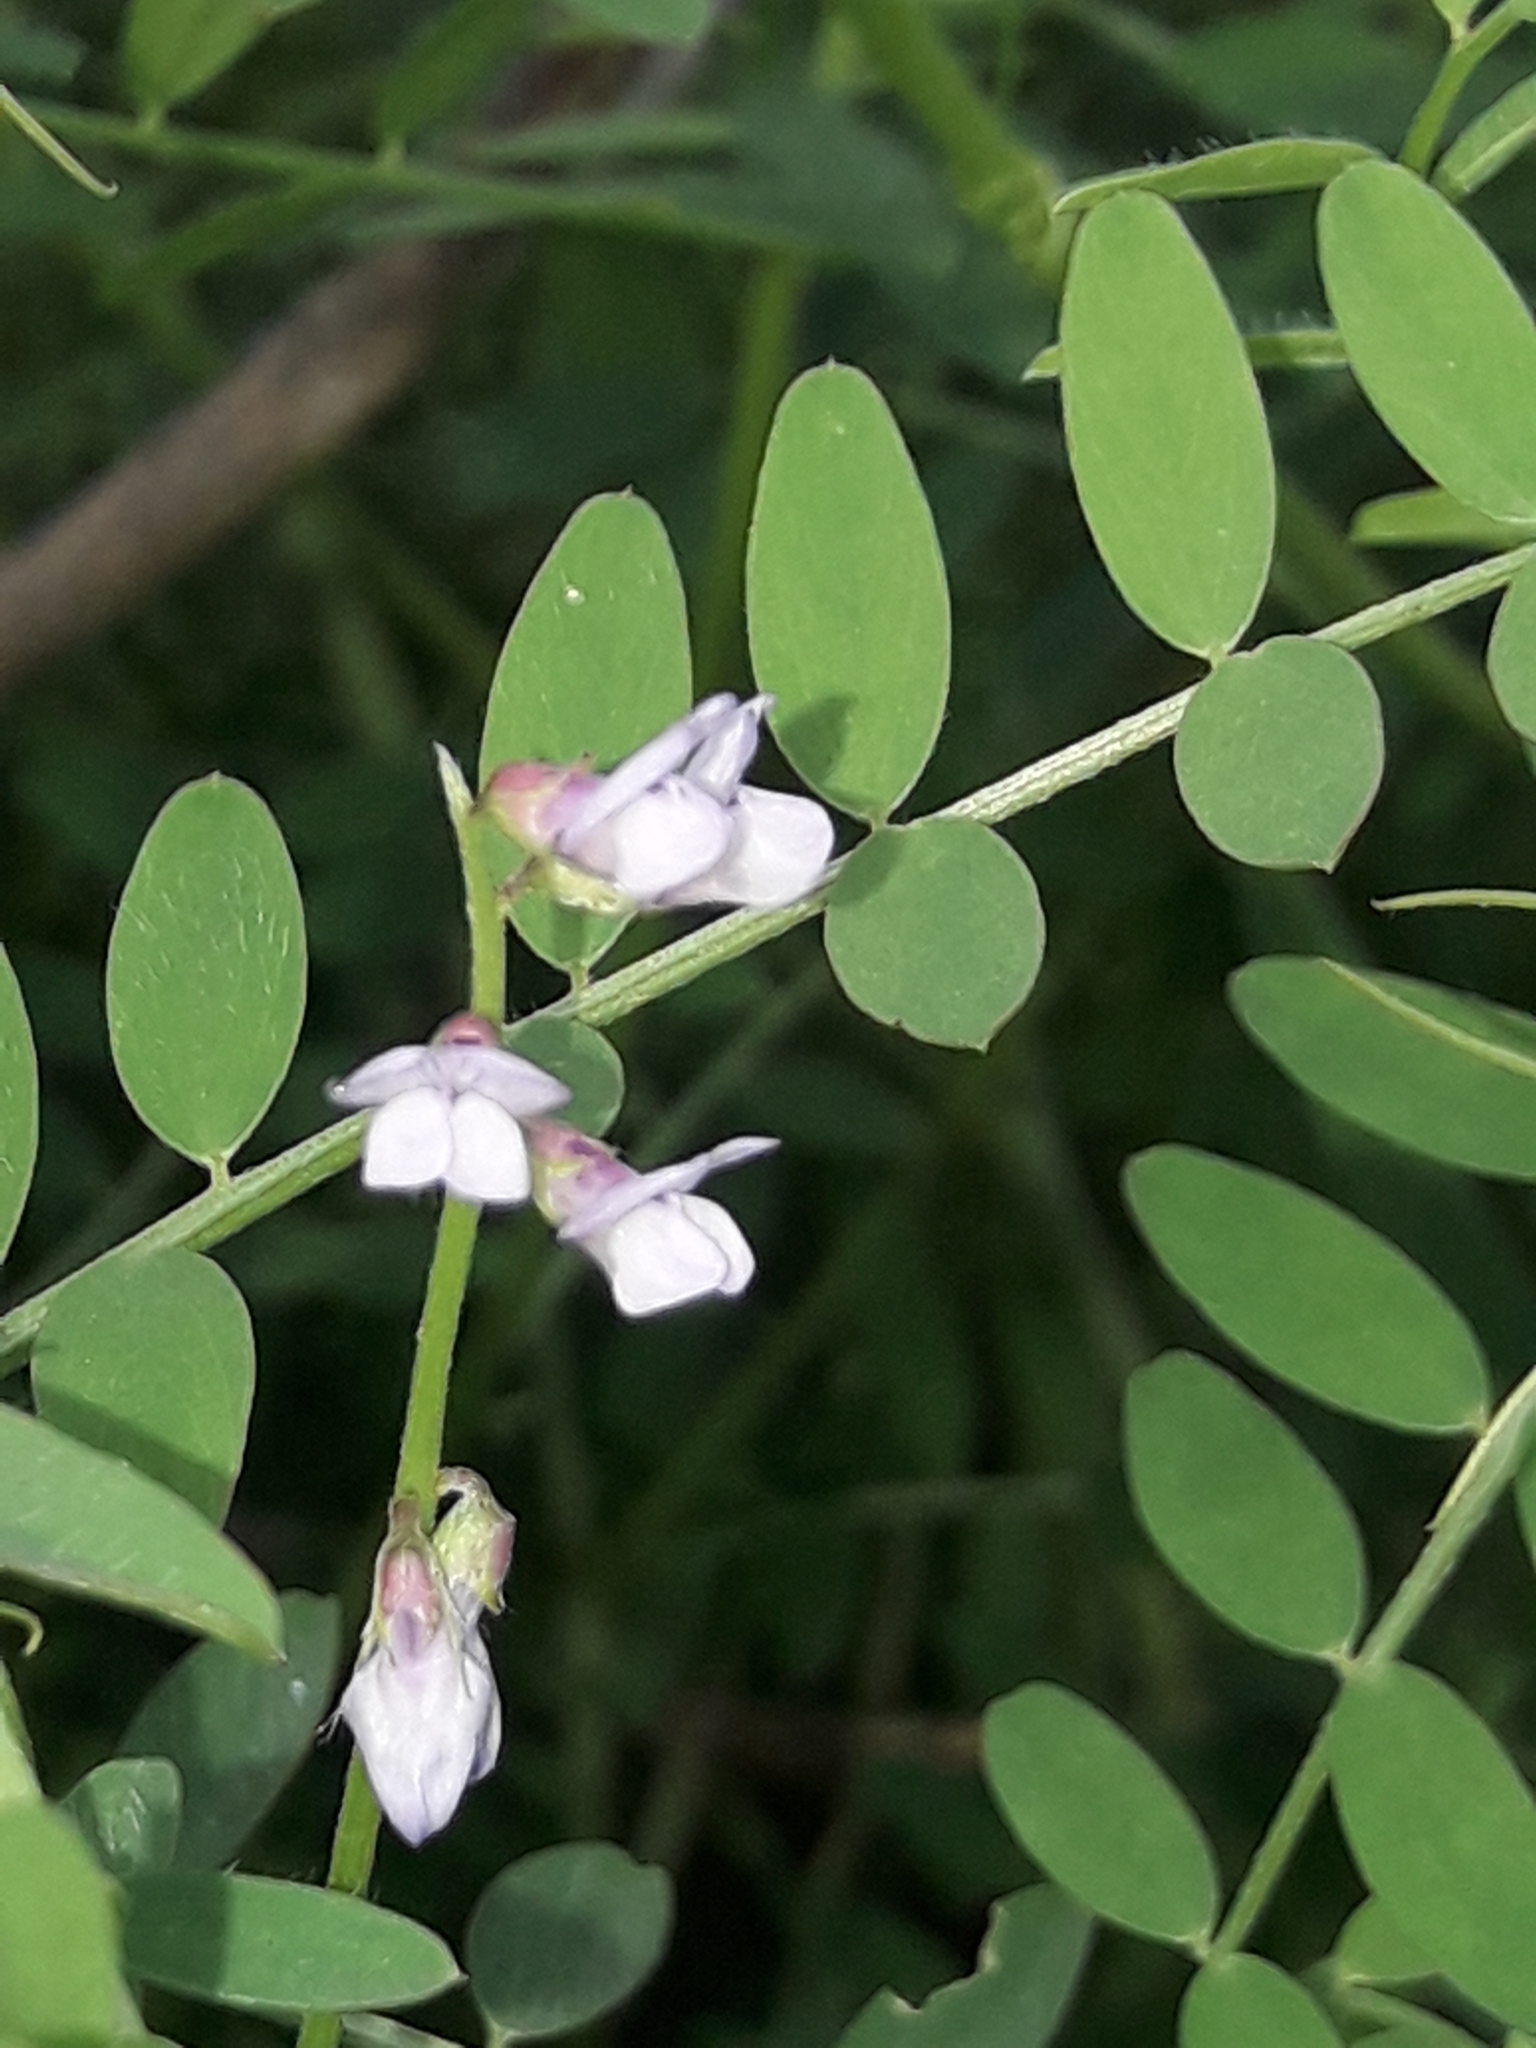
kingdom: Plantae
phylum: Tracheophyta
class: Magnoliopsida
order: Fabales
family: Fabaceae
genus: Vicia
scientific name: Vicia disperma
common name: European vetch
